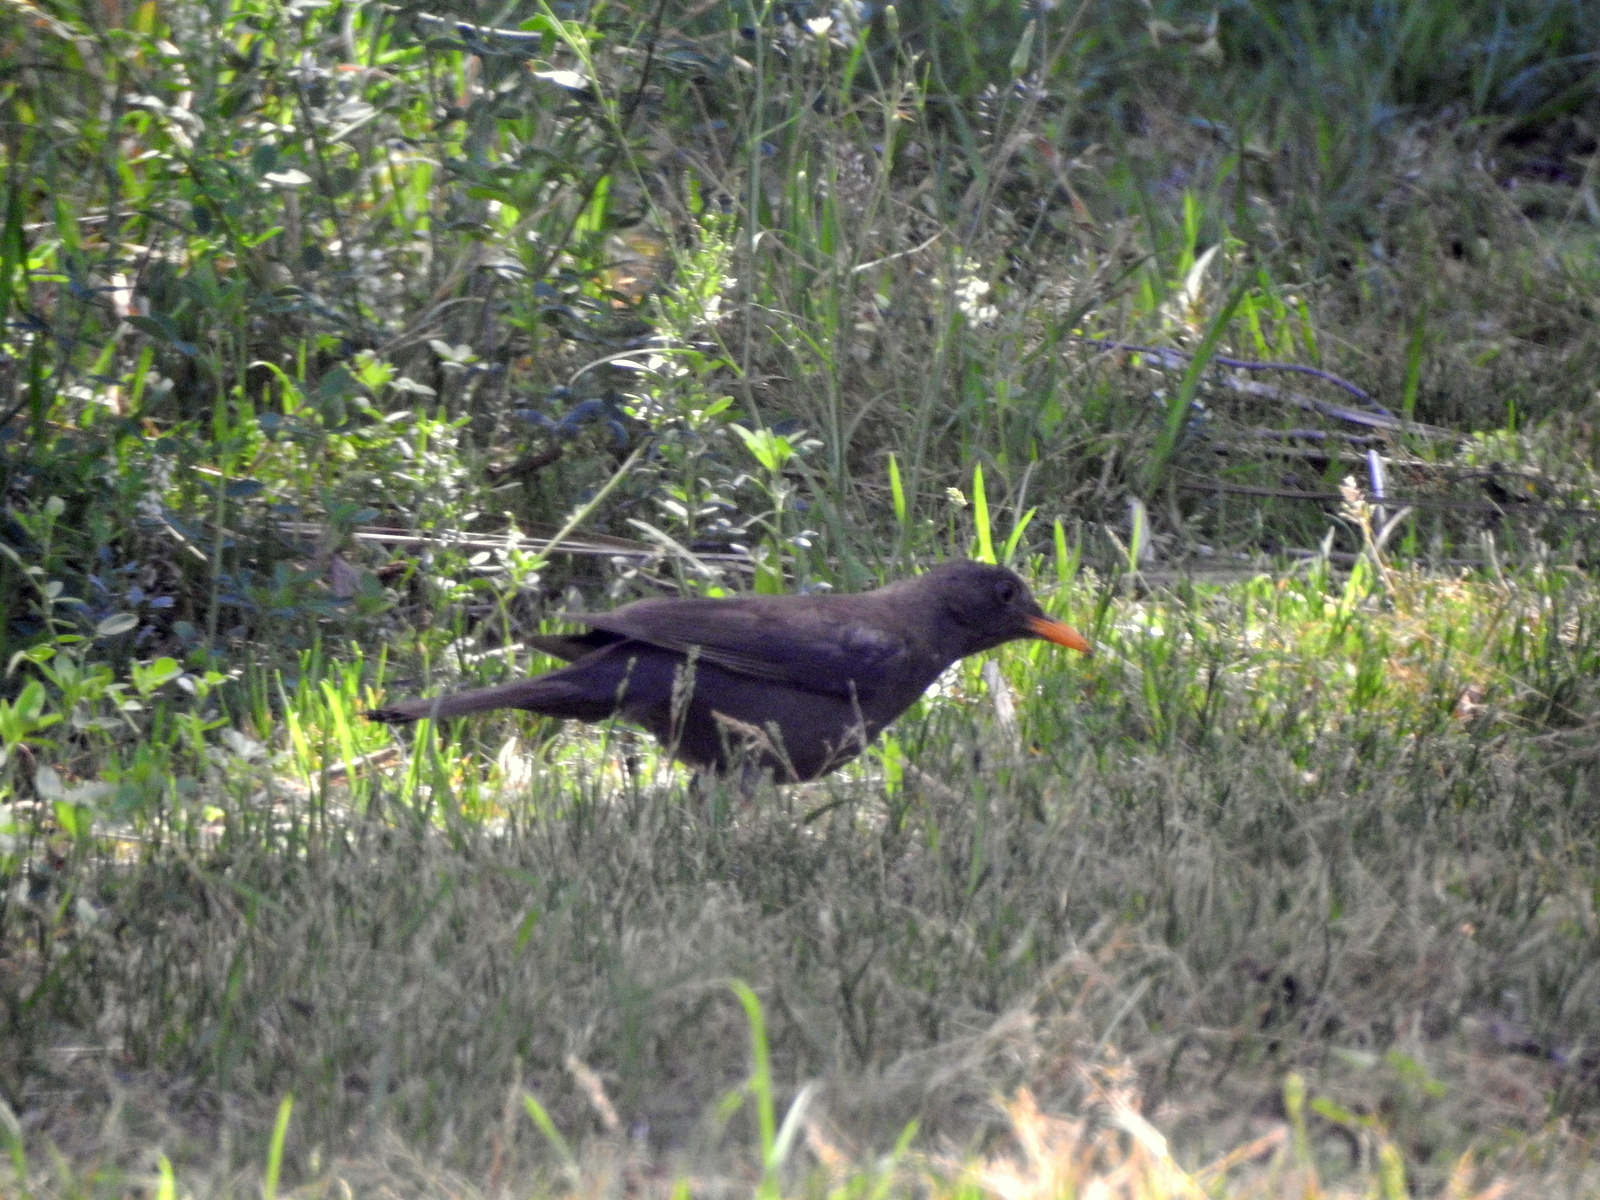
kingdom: Animalia
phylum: Chordata
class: Aves
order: Passeriformes
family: Turdidae
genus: Turdus
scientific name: Turdus chiguanco
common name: Chiguanco thrush
